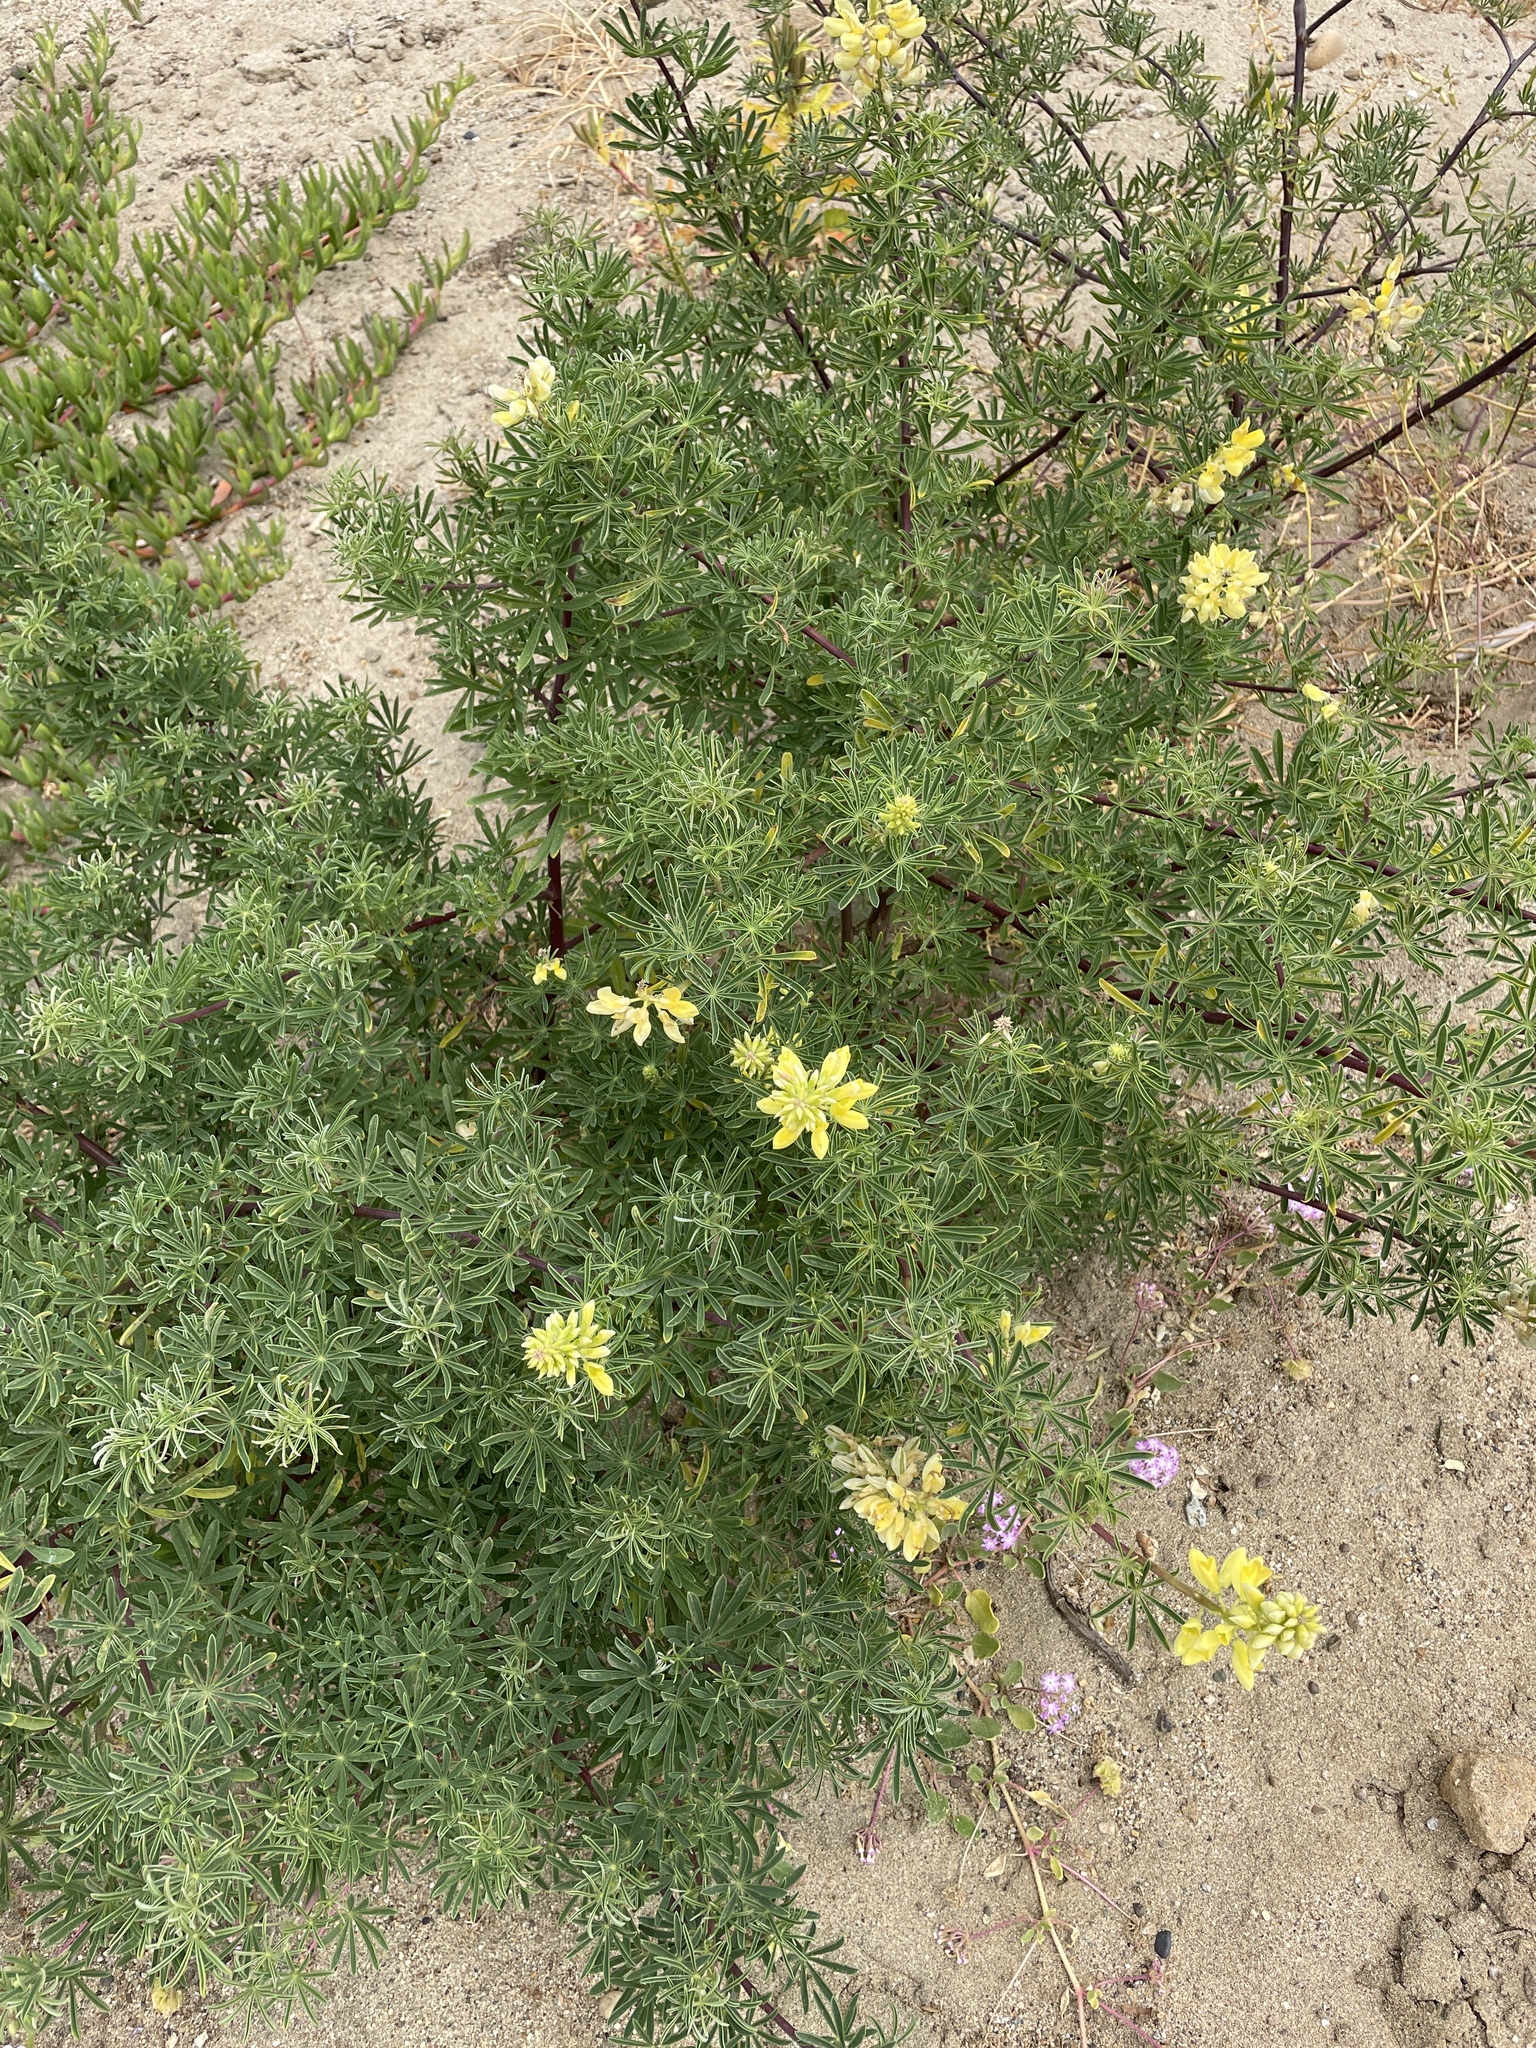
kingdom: Plantae
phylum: Tracheophyta
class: Magnoliopsida
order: Fabales
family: Fabaceae
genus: Lupinus
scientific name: Lupinus arboreus
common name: Yellow bush lupine
